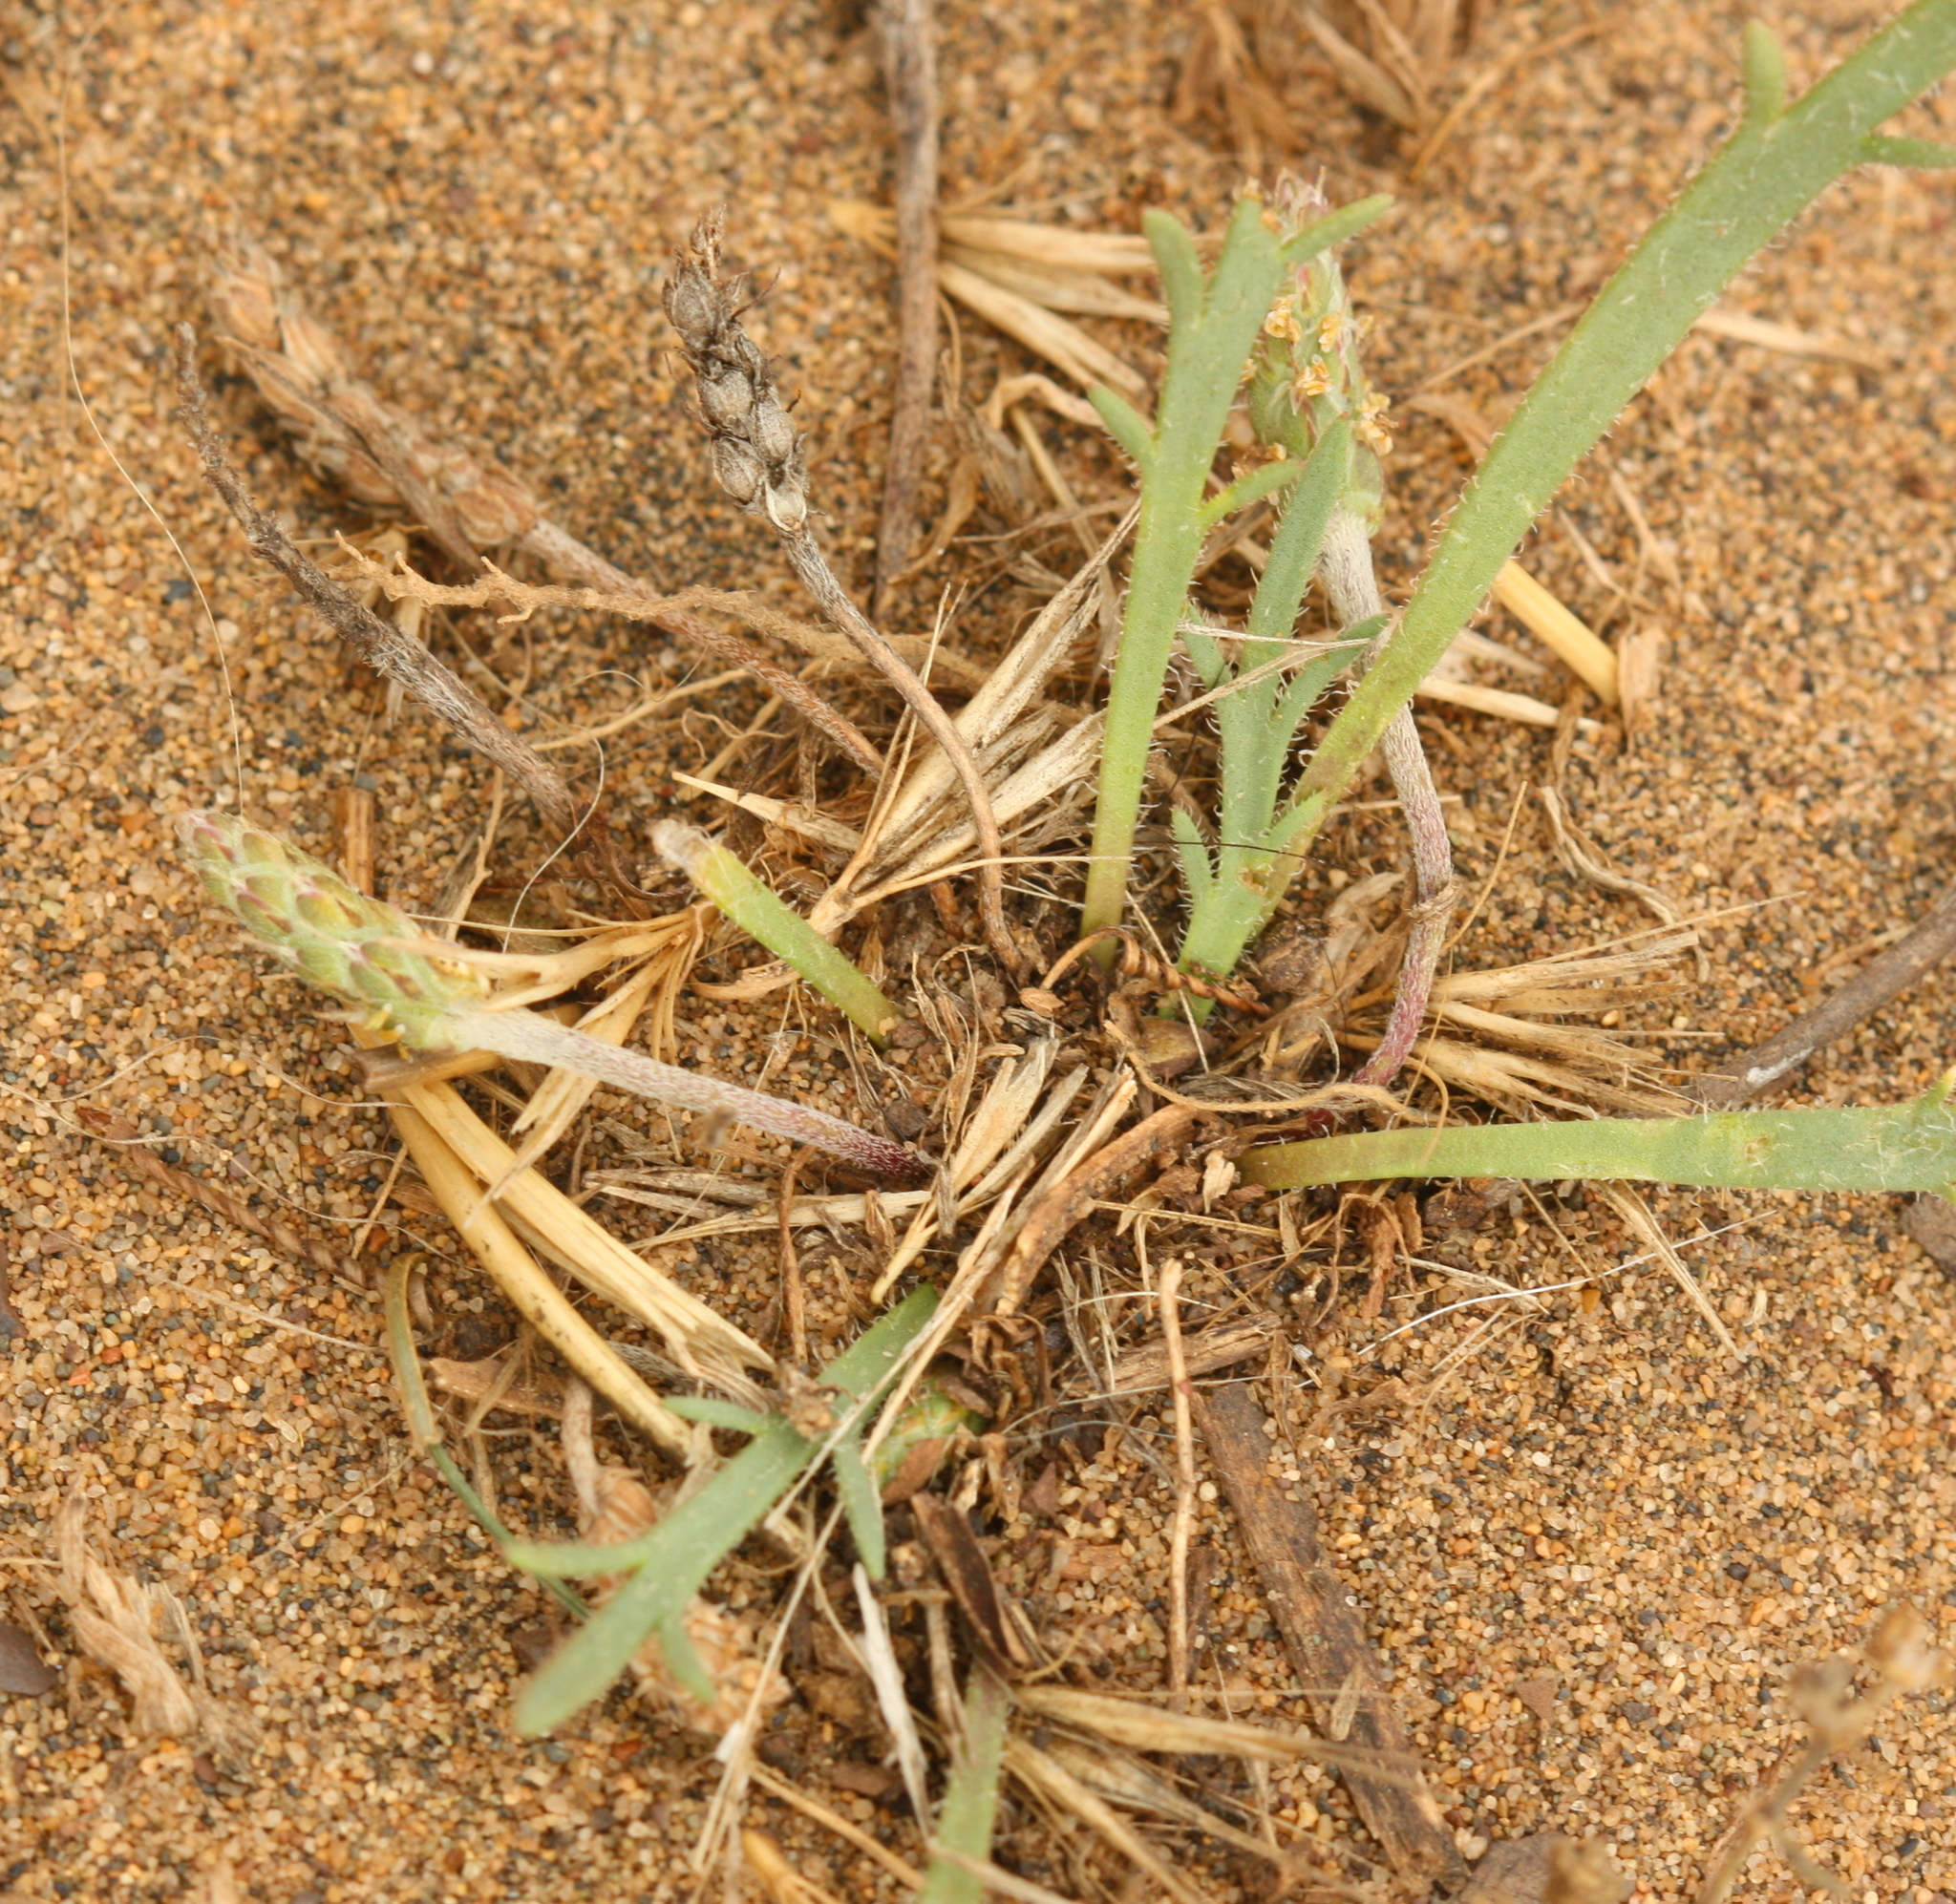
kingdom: Plantae
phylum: Tracheophyta
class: Magnoliopsida
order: Lamiales
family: Plantaginaceae
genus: Plantago
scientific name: Plantago coronopus
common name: Buck's-horn plantain
